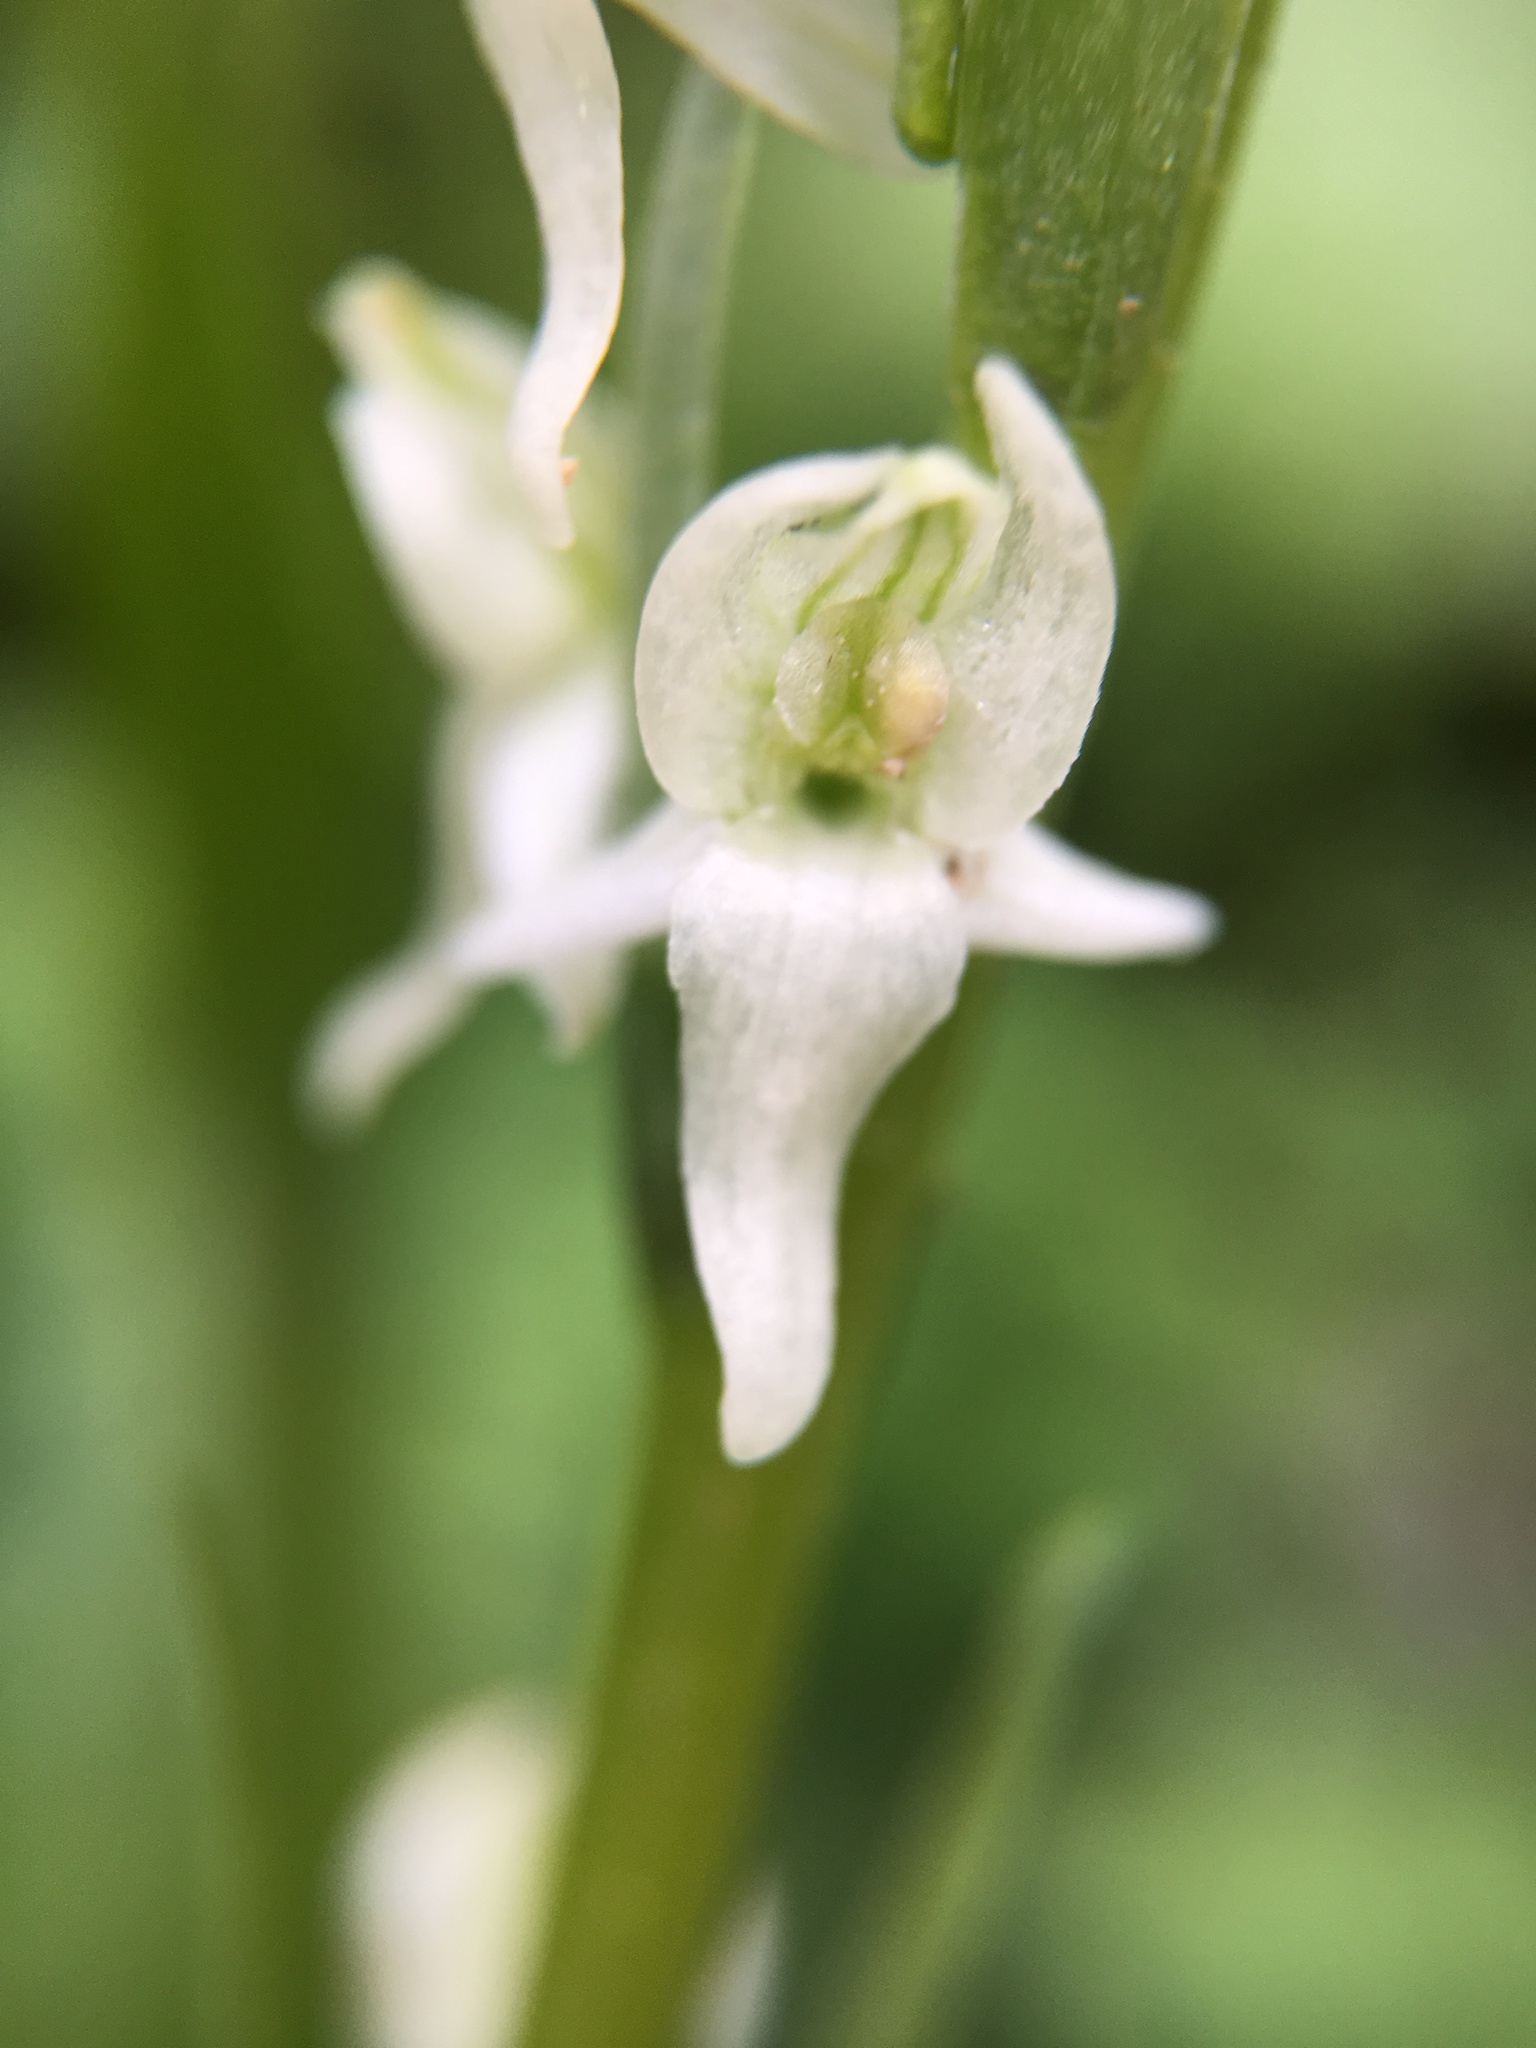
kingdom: Plantae
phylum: Tracheophyta
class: Liliopsida
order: Asparagales
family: Orchidaceae
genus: Platanthera
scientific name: Platanthera dilatata
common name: Bog candles
